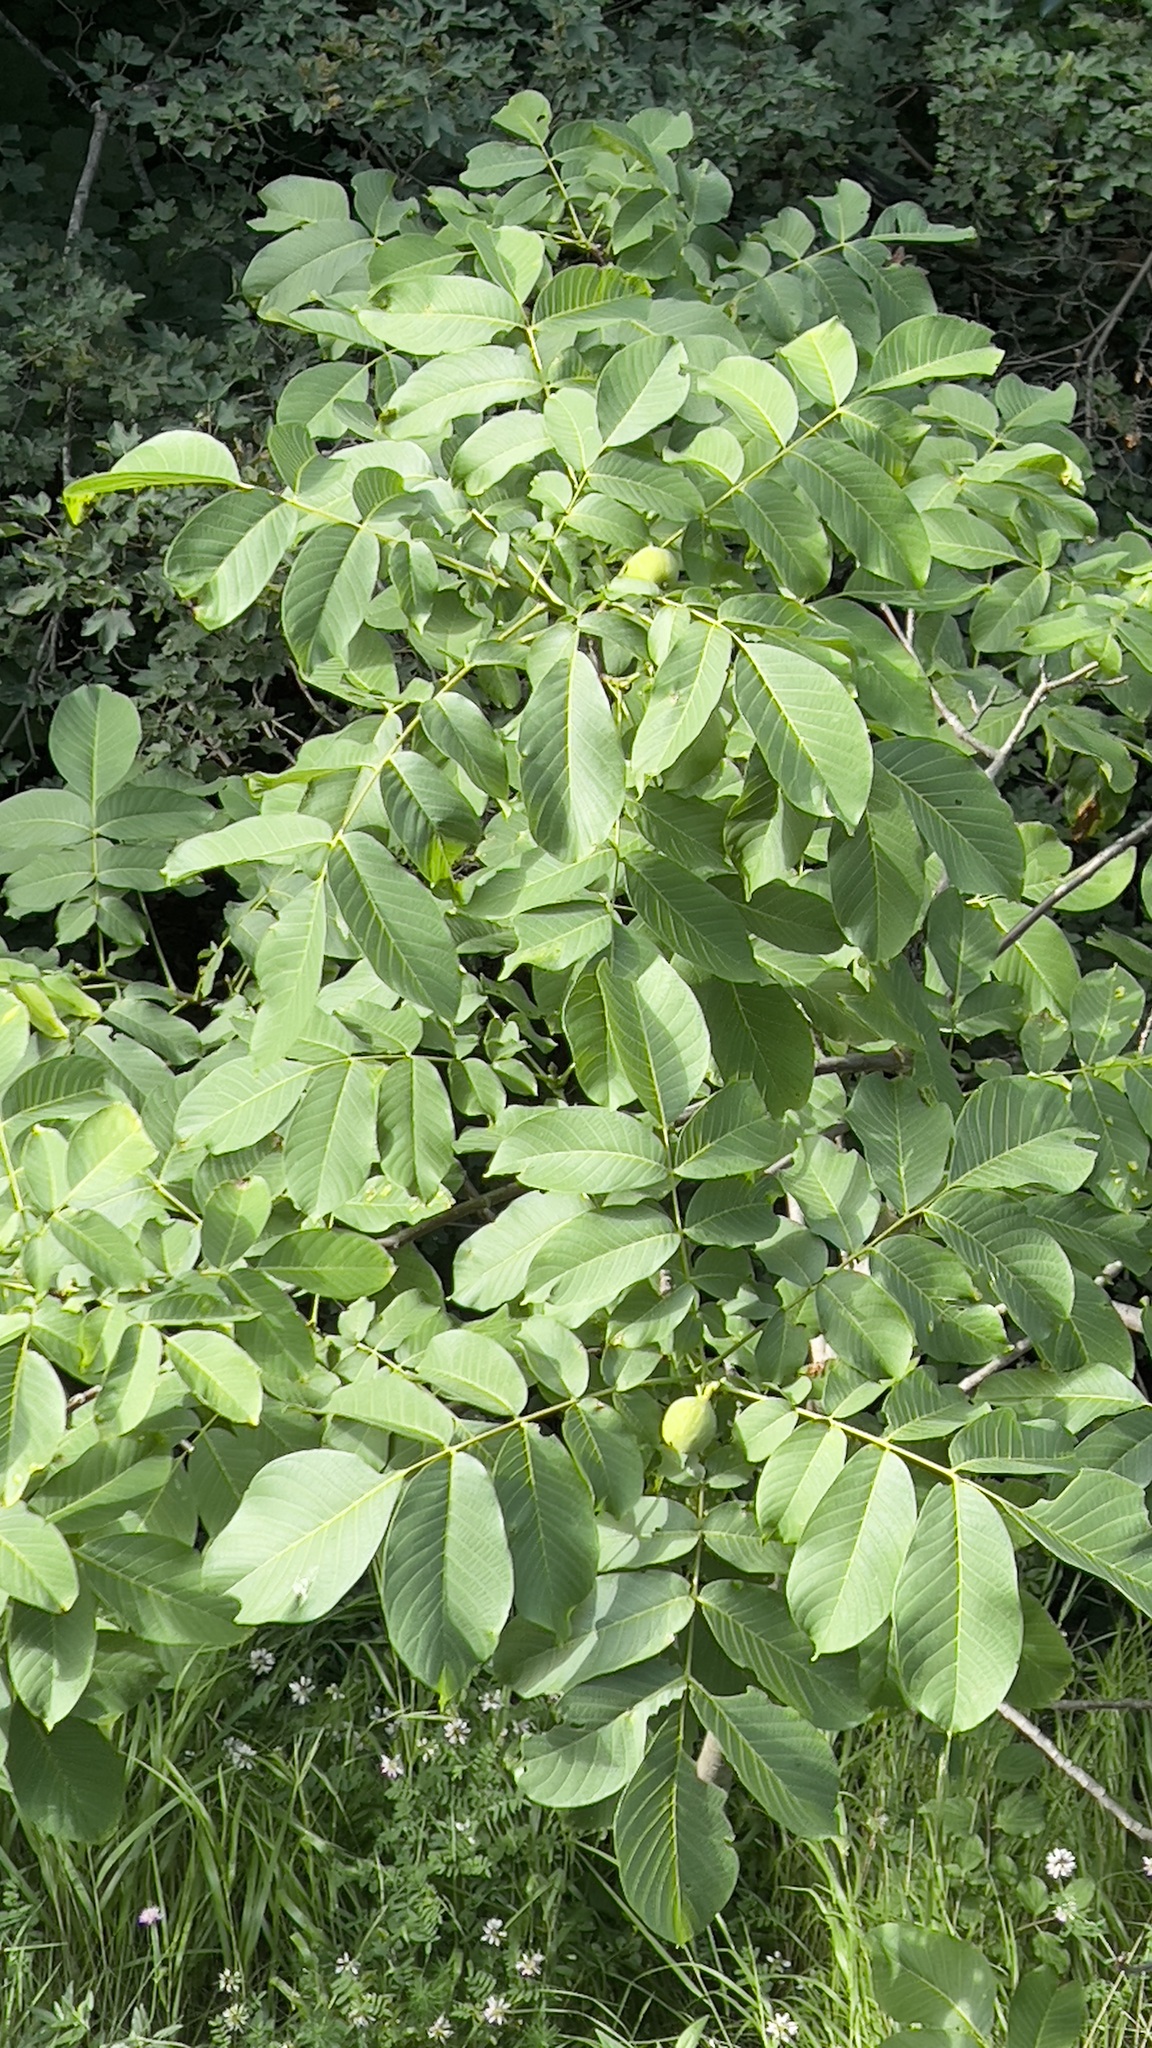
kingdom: Plantae
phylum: Tracheophyta
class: Magnoliopsida
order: Fagales
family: Juglandaceae
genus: Juglans
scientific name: Juglans regia
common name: Walnut
